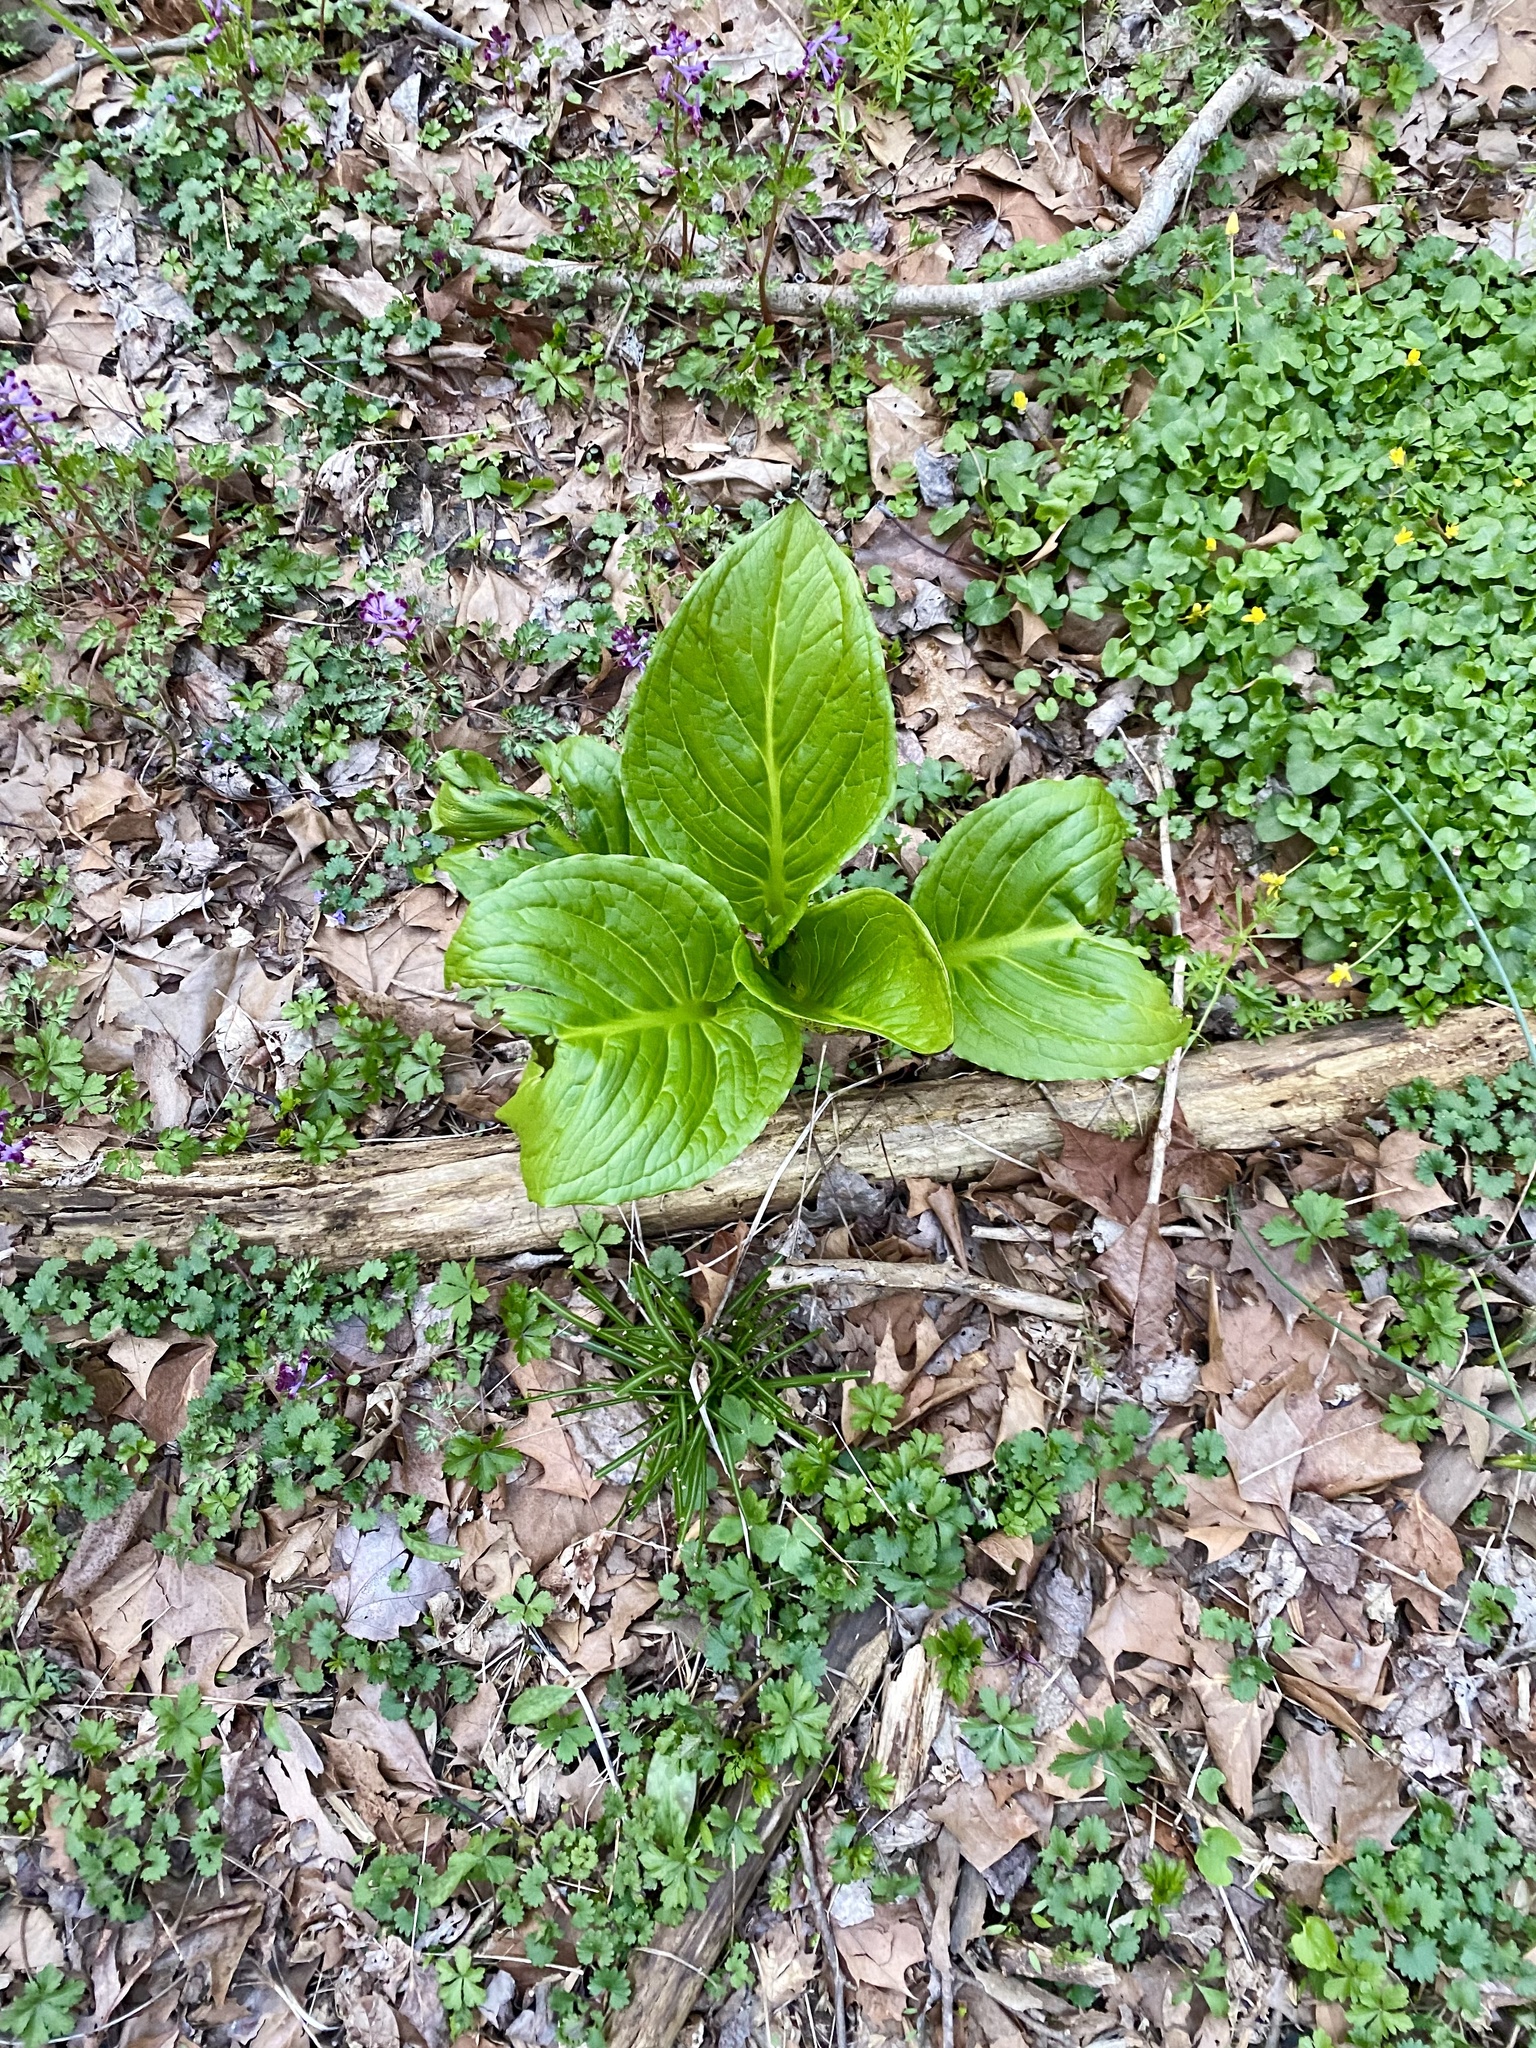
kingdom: Plantae
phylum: Tracheophyta
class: Liliopsida
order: Alismatales
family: Araceae
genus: Symplocarpus
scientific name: Symplocarpus foetidus
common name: Eastern skunk cabbage
